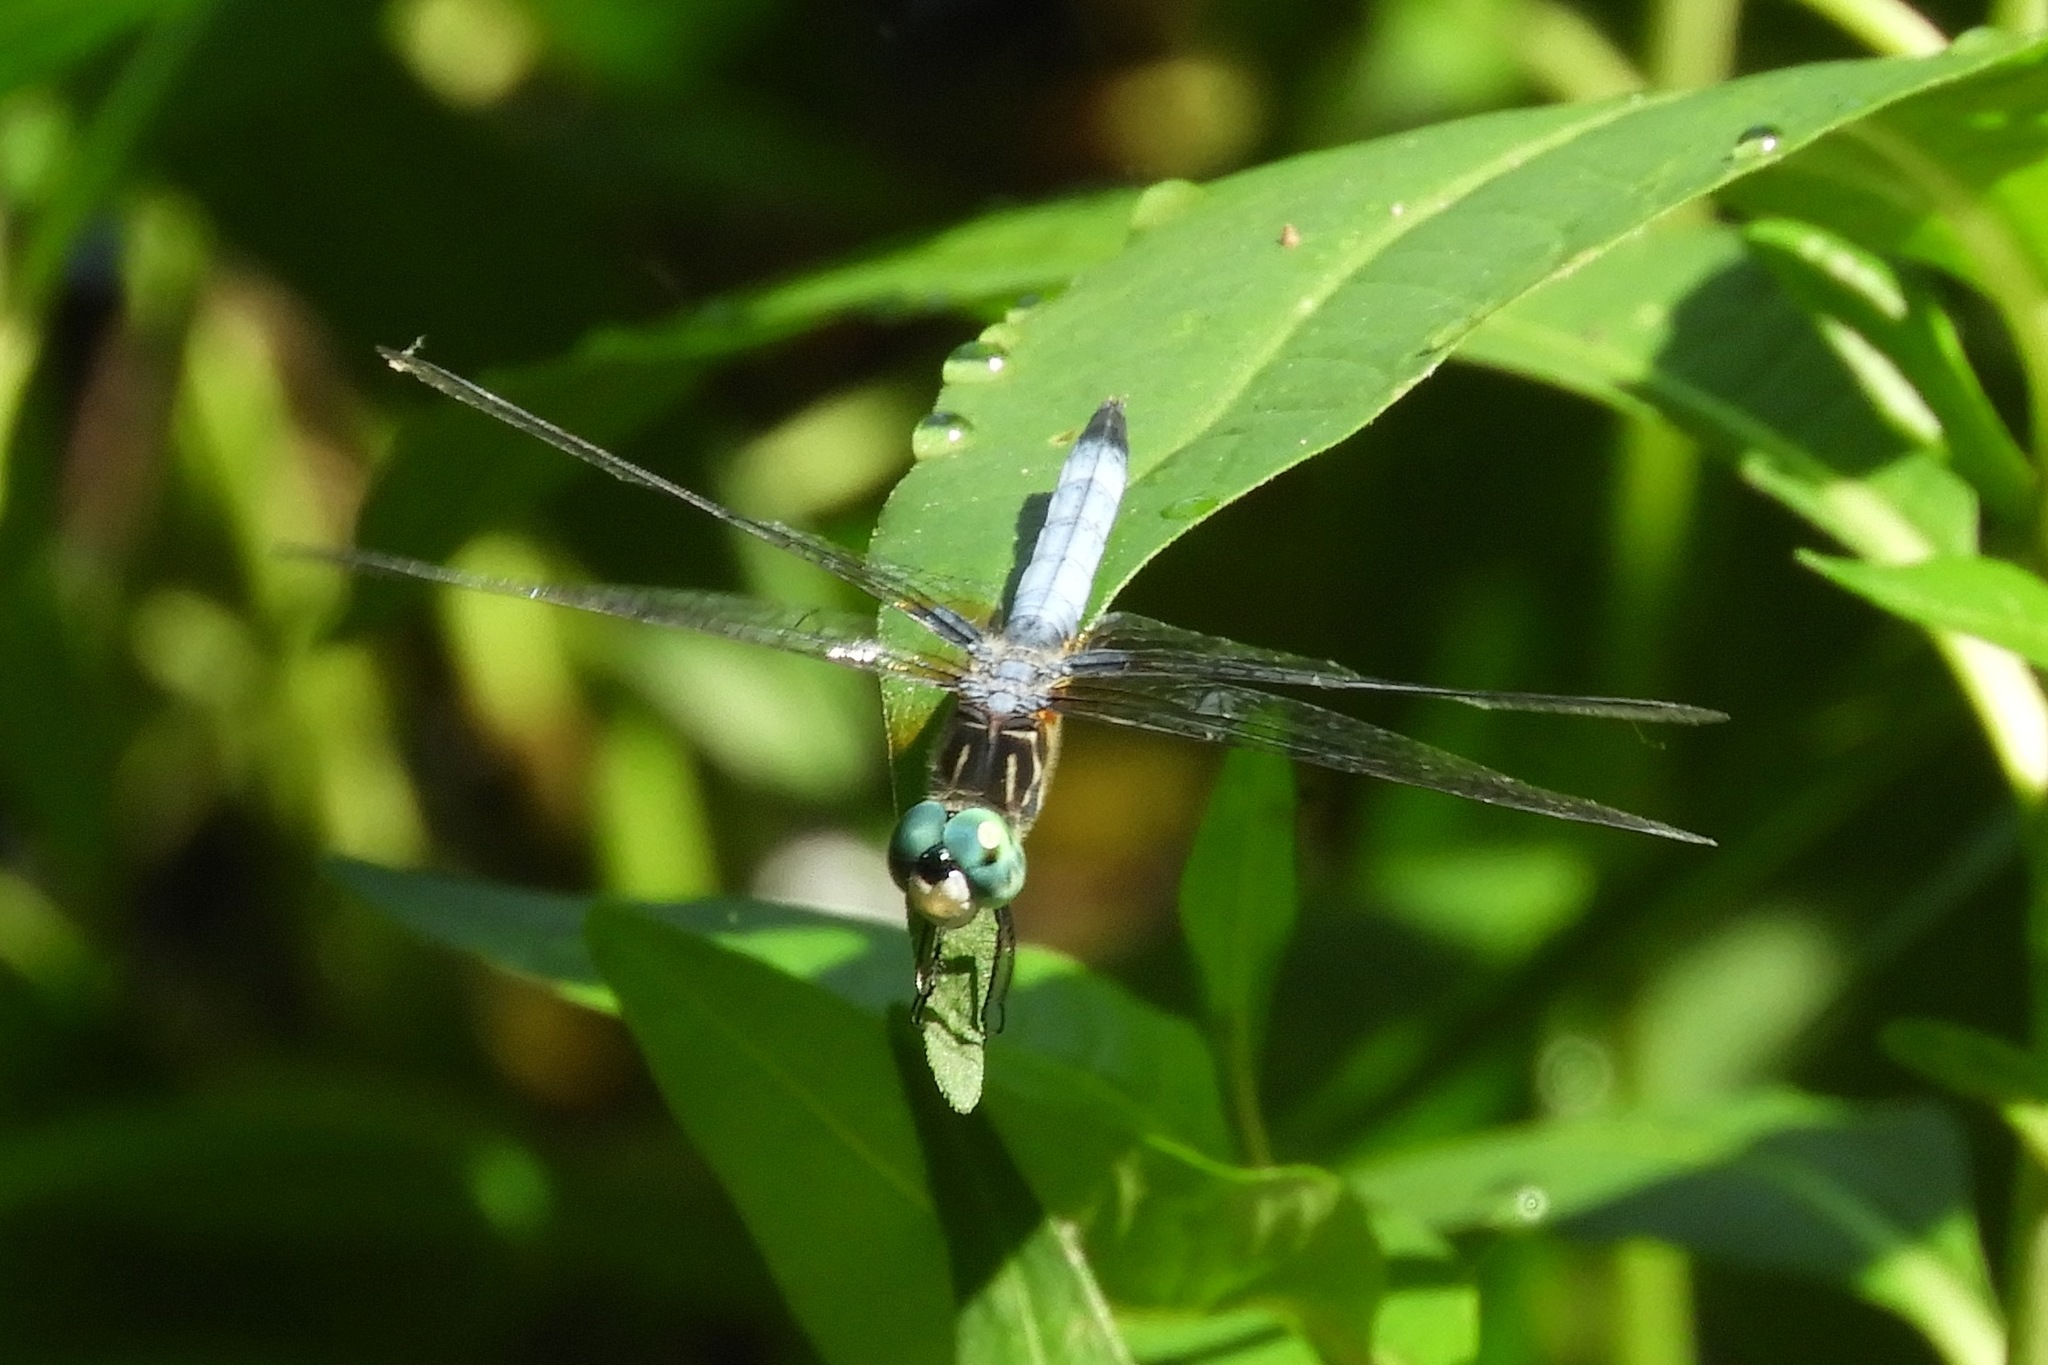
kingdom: Animalia
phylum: Arthropoda
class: Insecta
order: Odonata
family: Libellulidae
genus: Pachydiplax
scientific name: Pachydiplax longipennis
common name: Blue dasher
